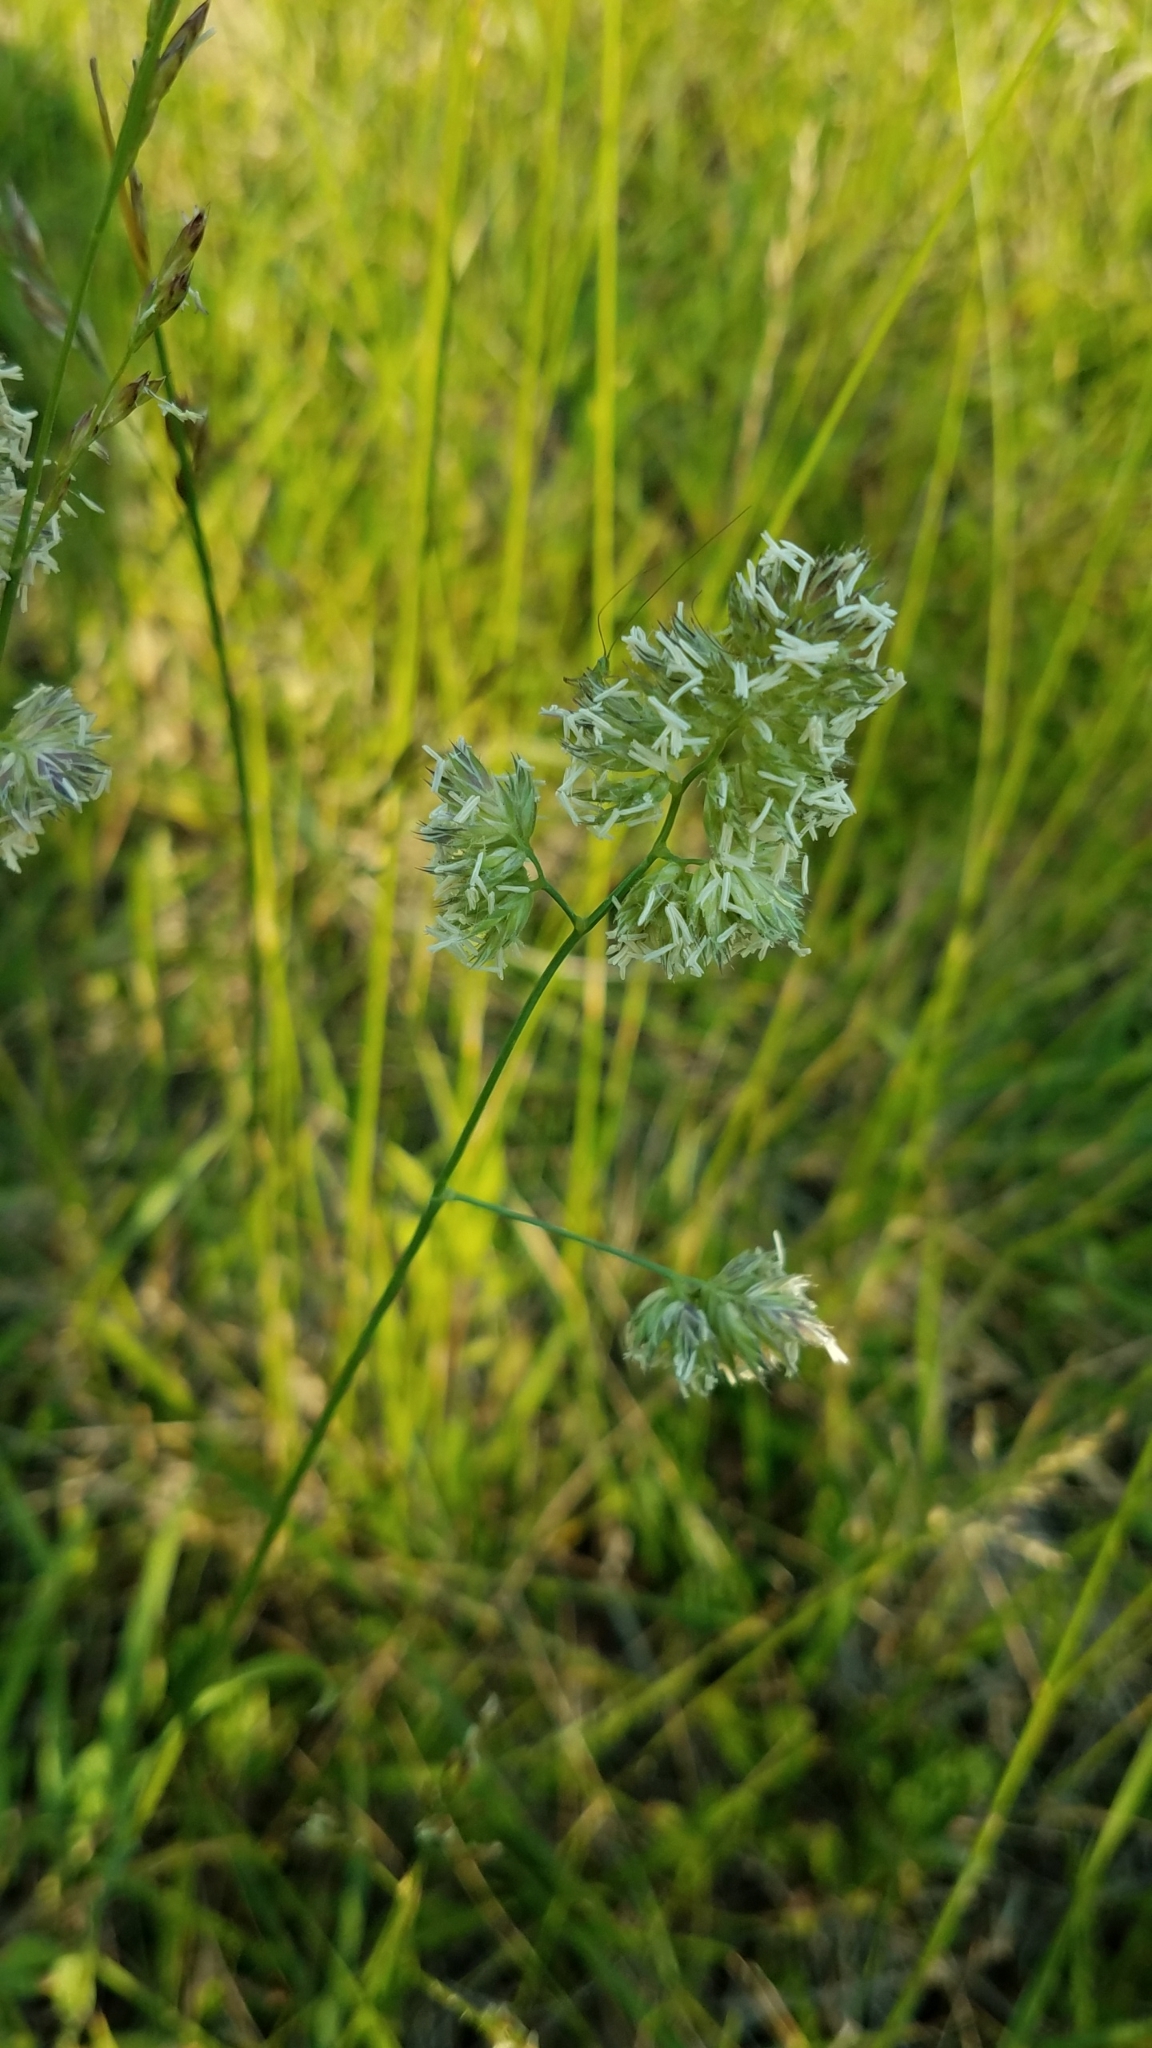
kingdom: Plantae
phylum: Tracheophyta
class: Liliopsida
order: Poales
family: Poaceae
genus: Dactylis
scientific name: Dactylis glomerata
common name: Orchardgrass
